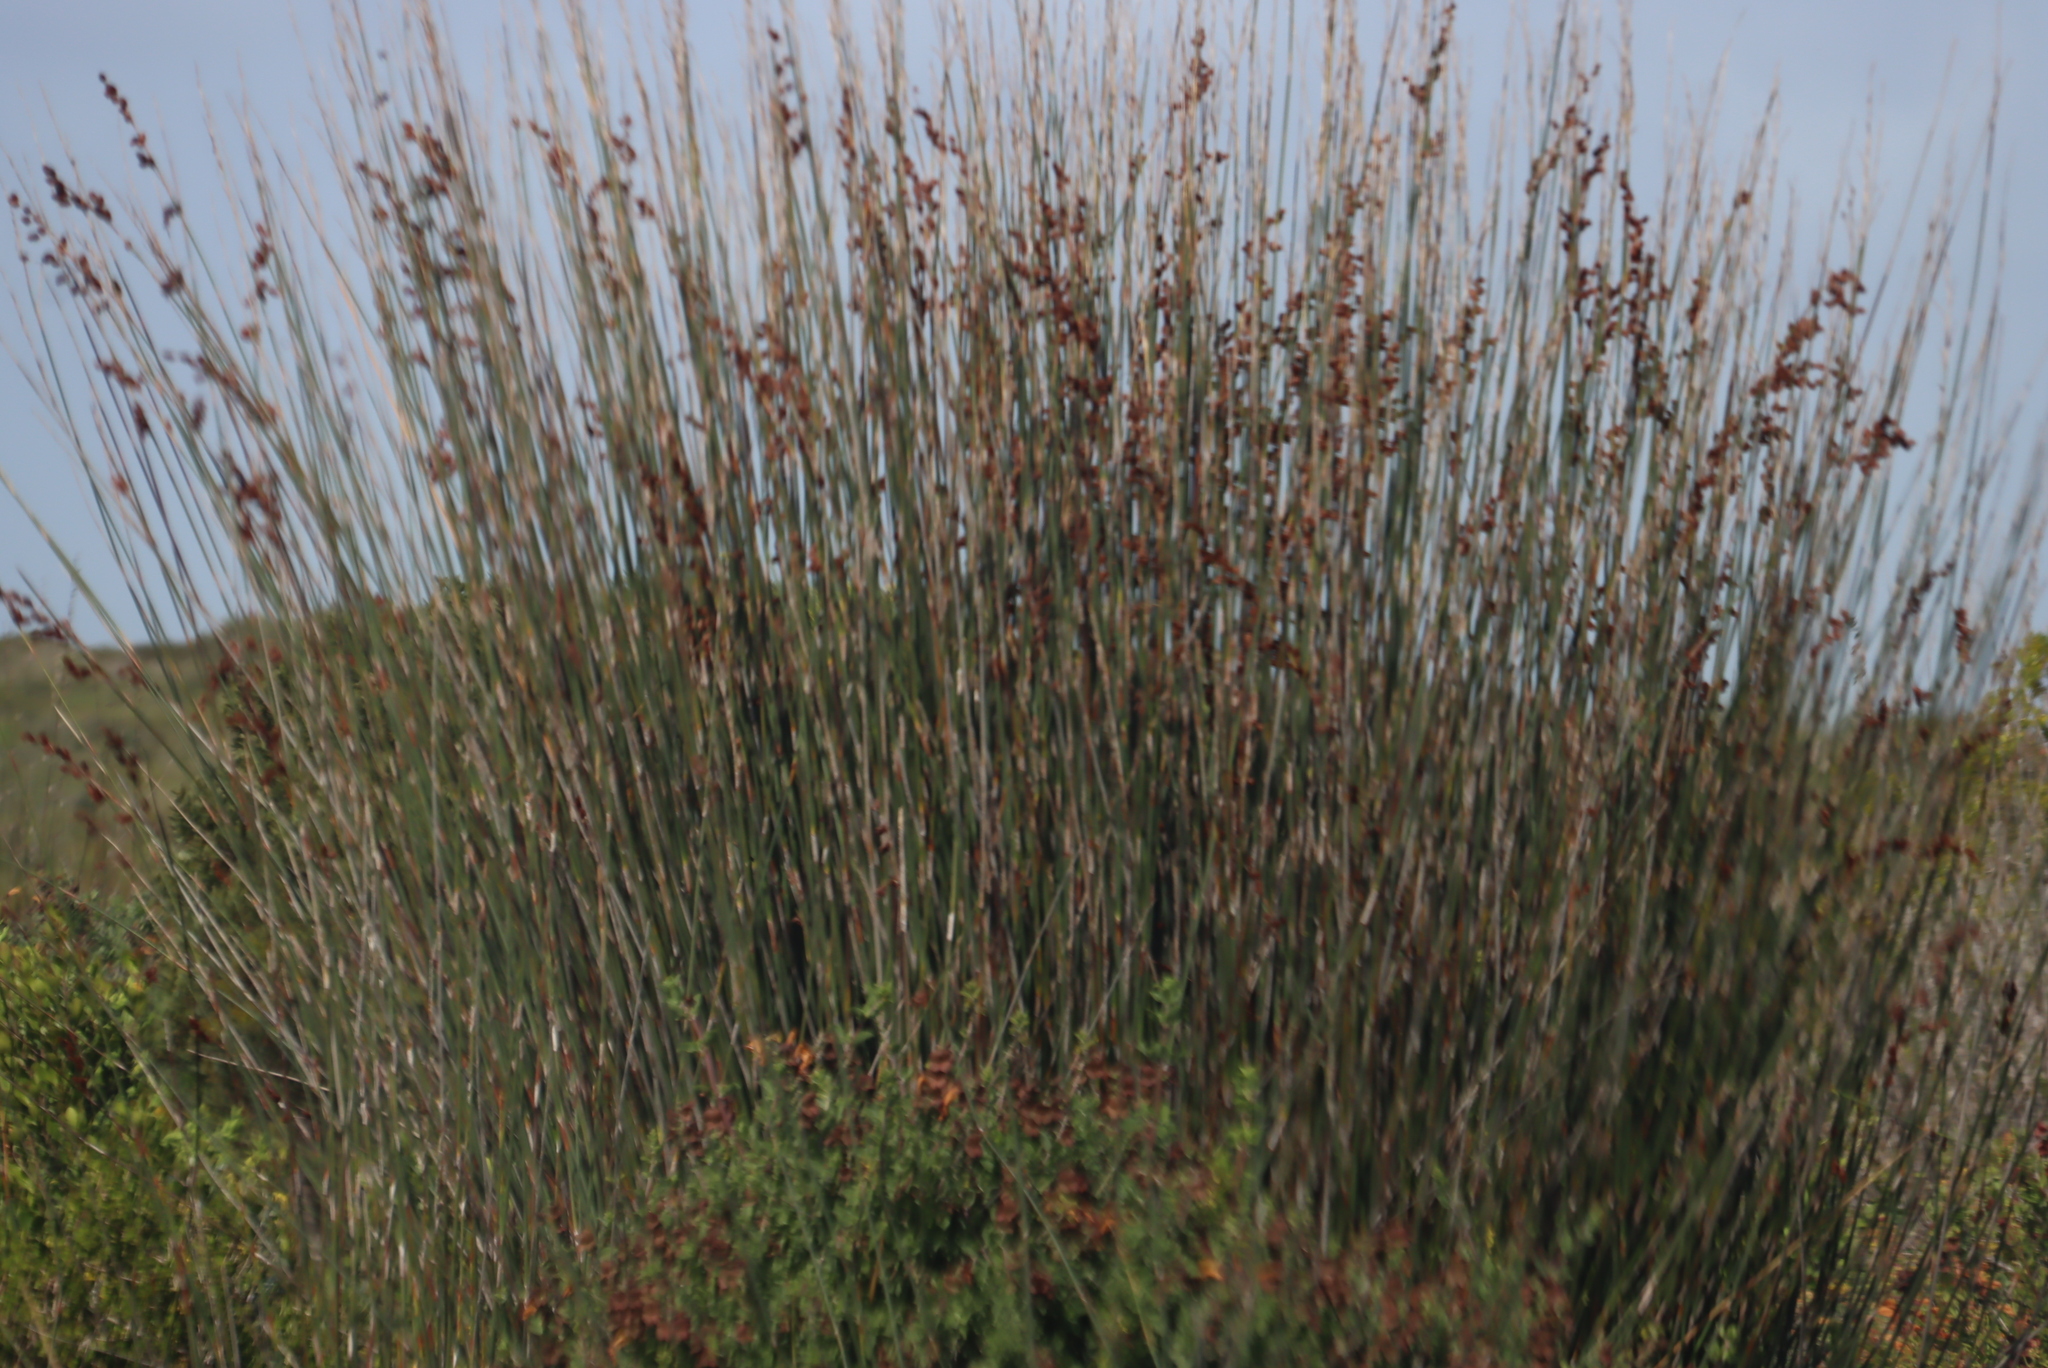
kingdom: Plantae
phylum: Tracheophyta
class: Liliopsida
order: Poales
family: Restionaceae
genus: Thamnochortus
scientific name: Thamnochortus spicigerus
